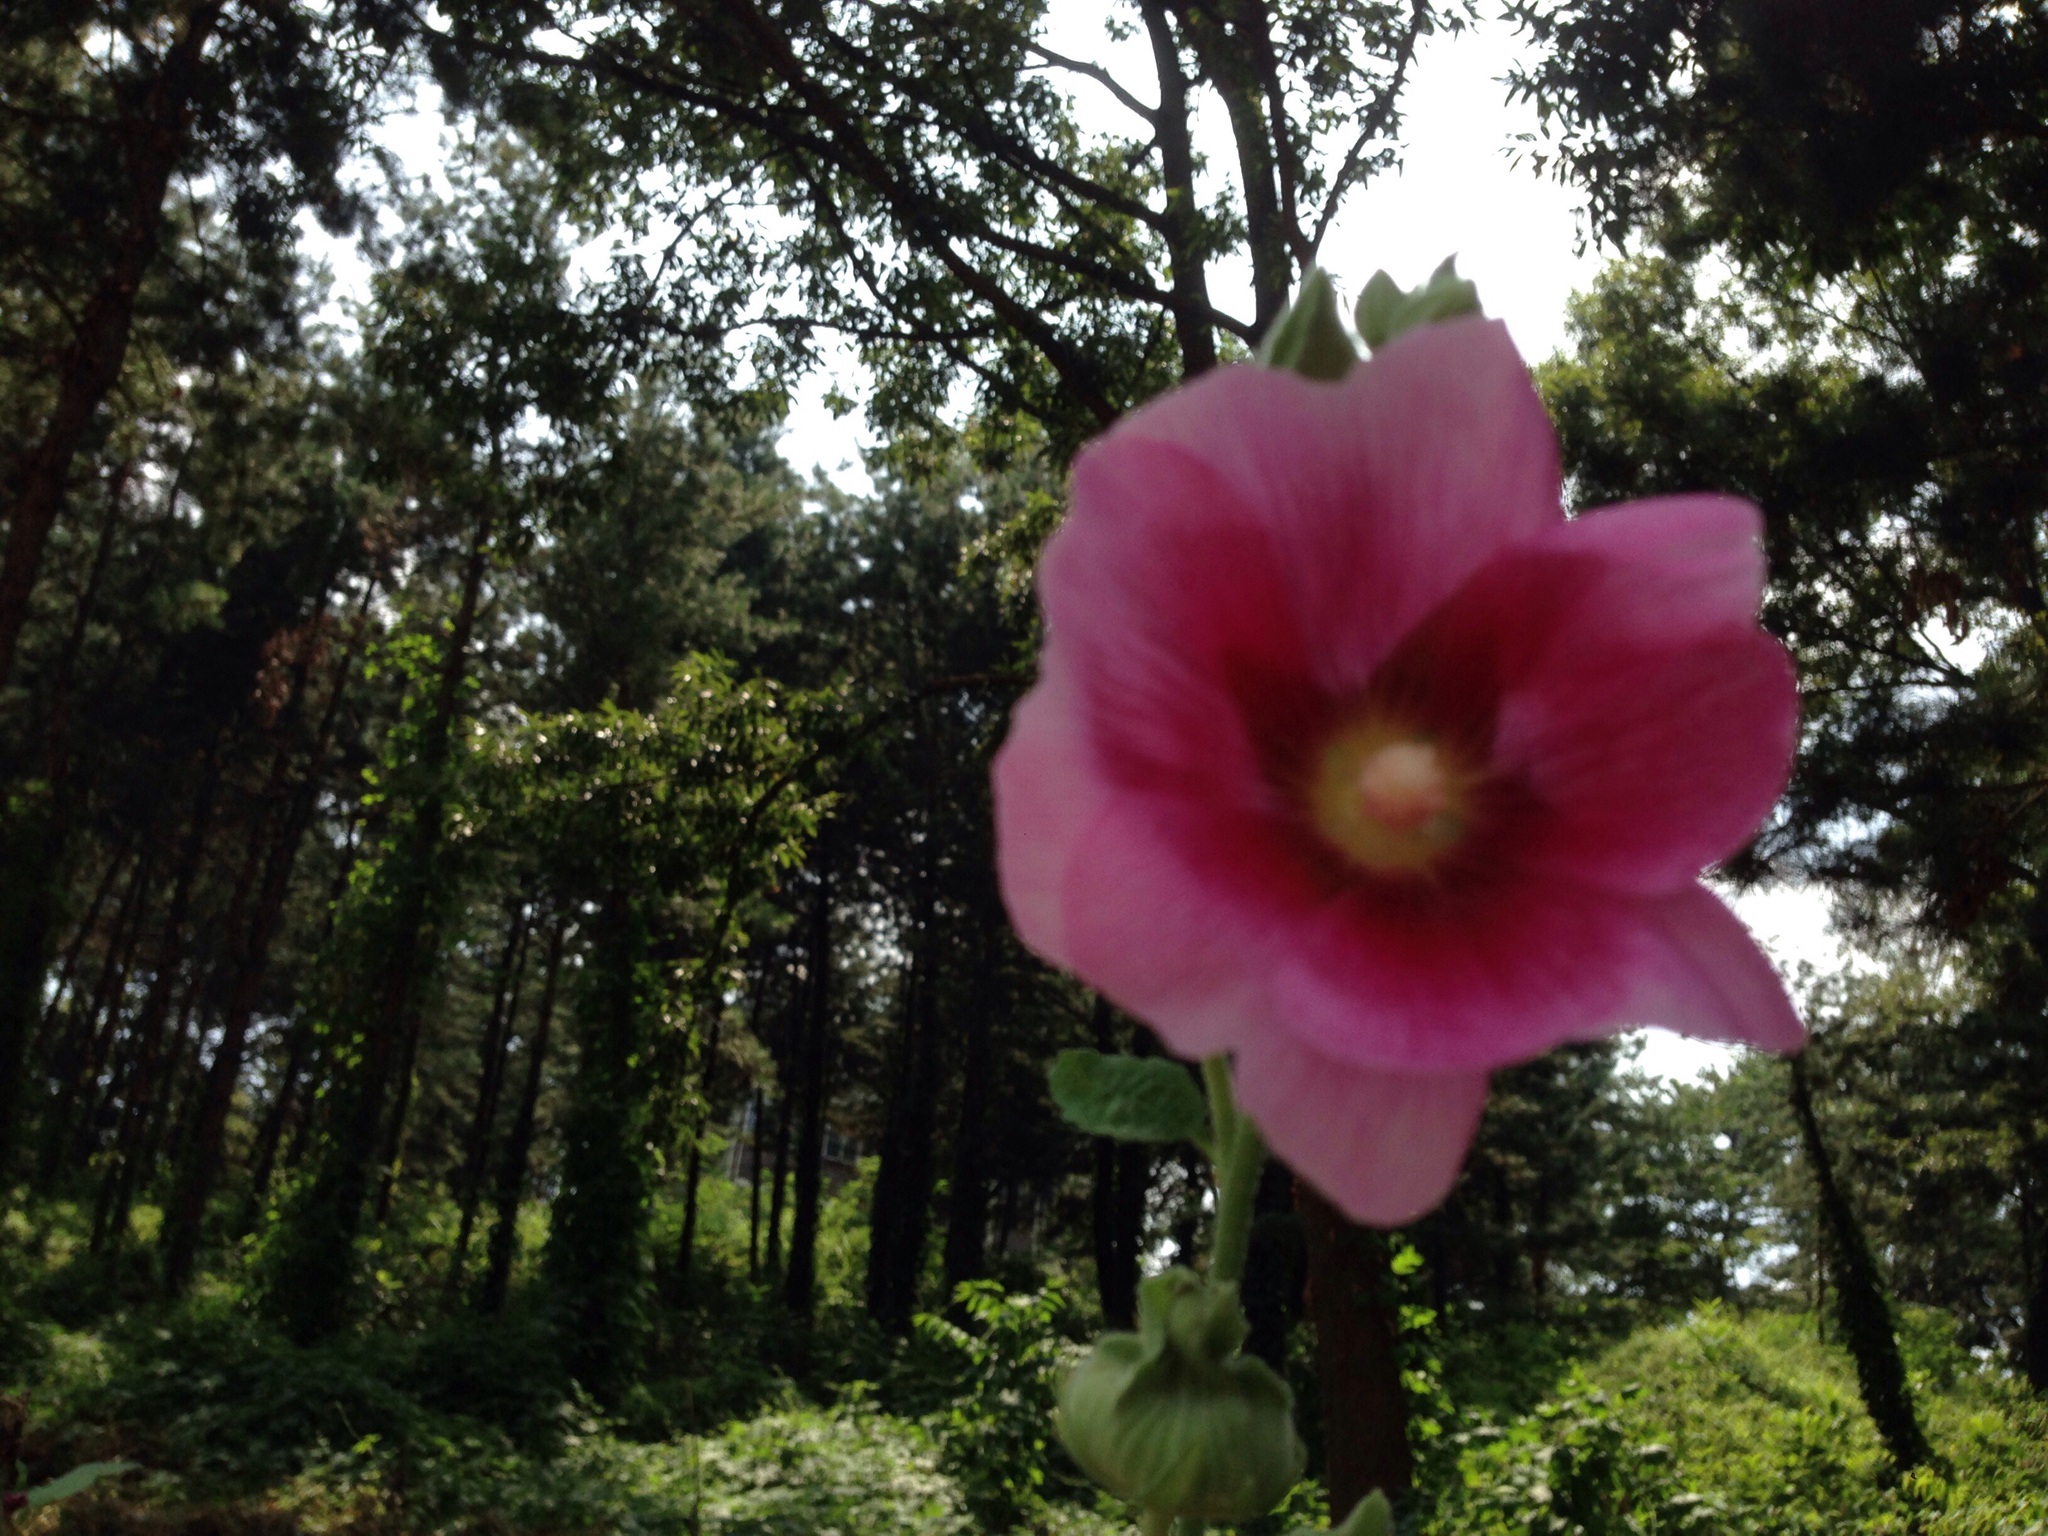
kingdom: Plantae
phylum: Tracheophyta
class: Magnoliopsida
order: Malvales
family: Malvaceae
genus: Alcea
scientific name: Alcea rosea
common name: Hollyhock
